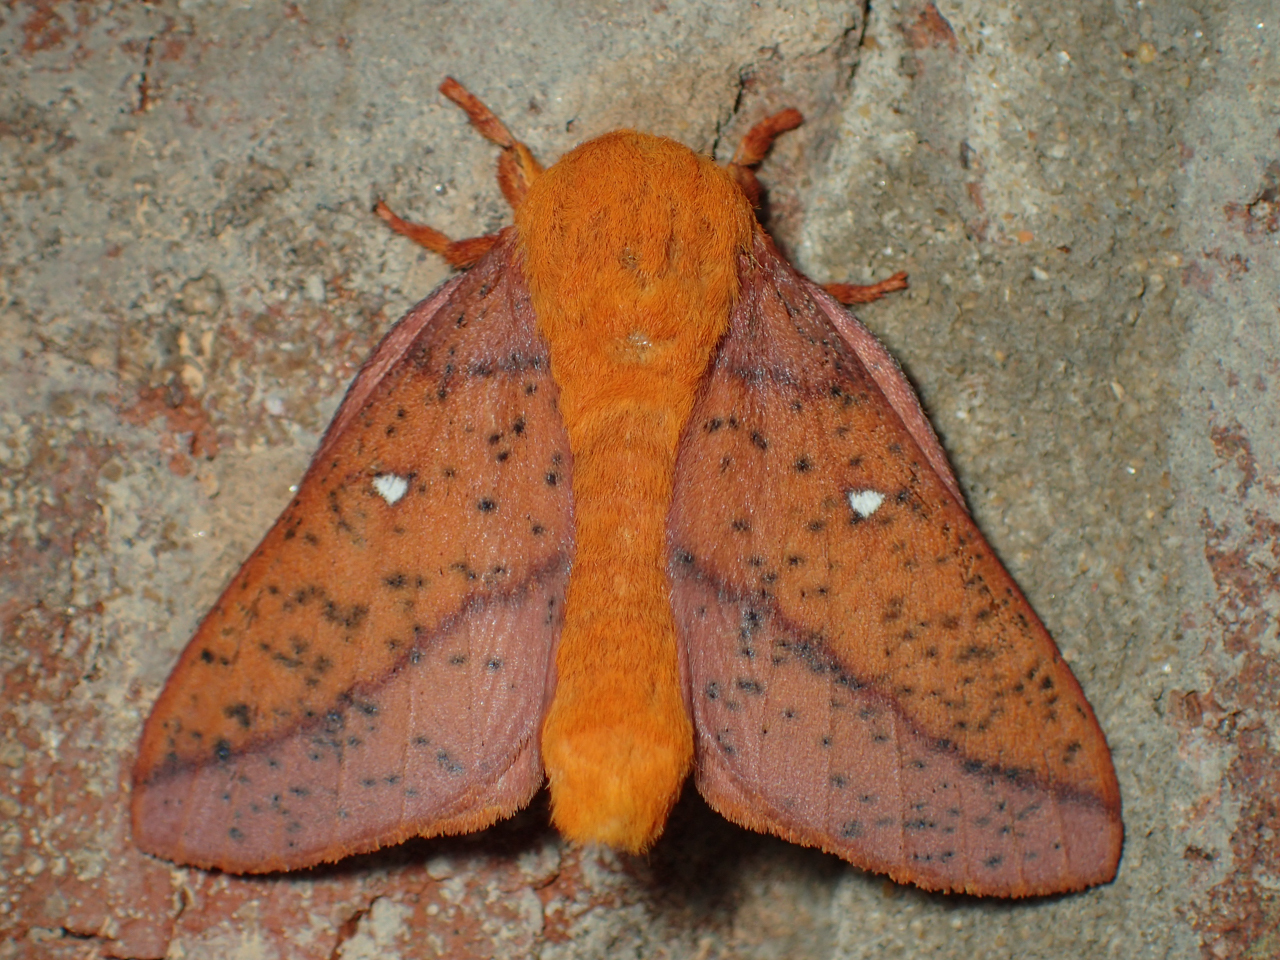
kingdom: Animalia
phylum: Arthropoda
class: Insecta
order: Lepidoptera
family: Saturniidae
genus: Anisota
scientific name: Anisota stigma
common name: Spiny oakworm moth
